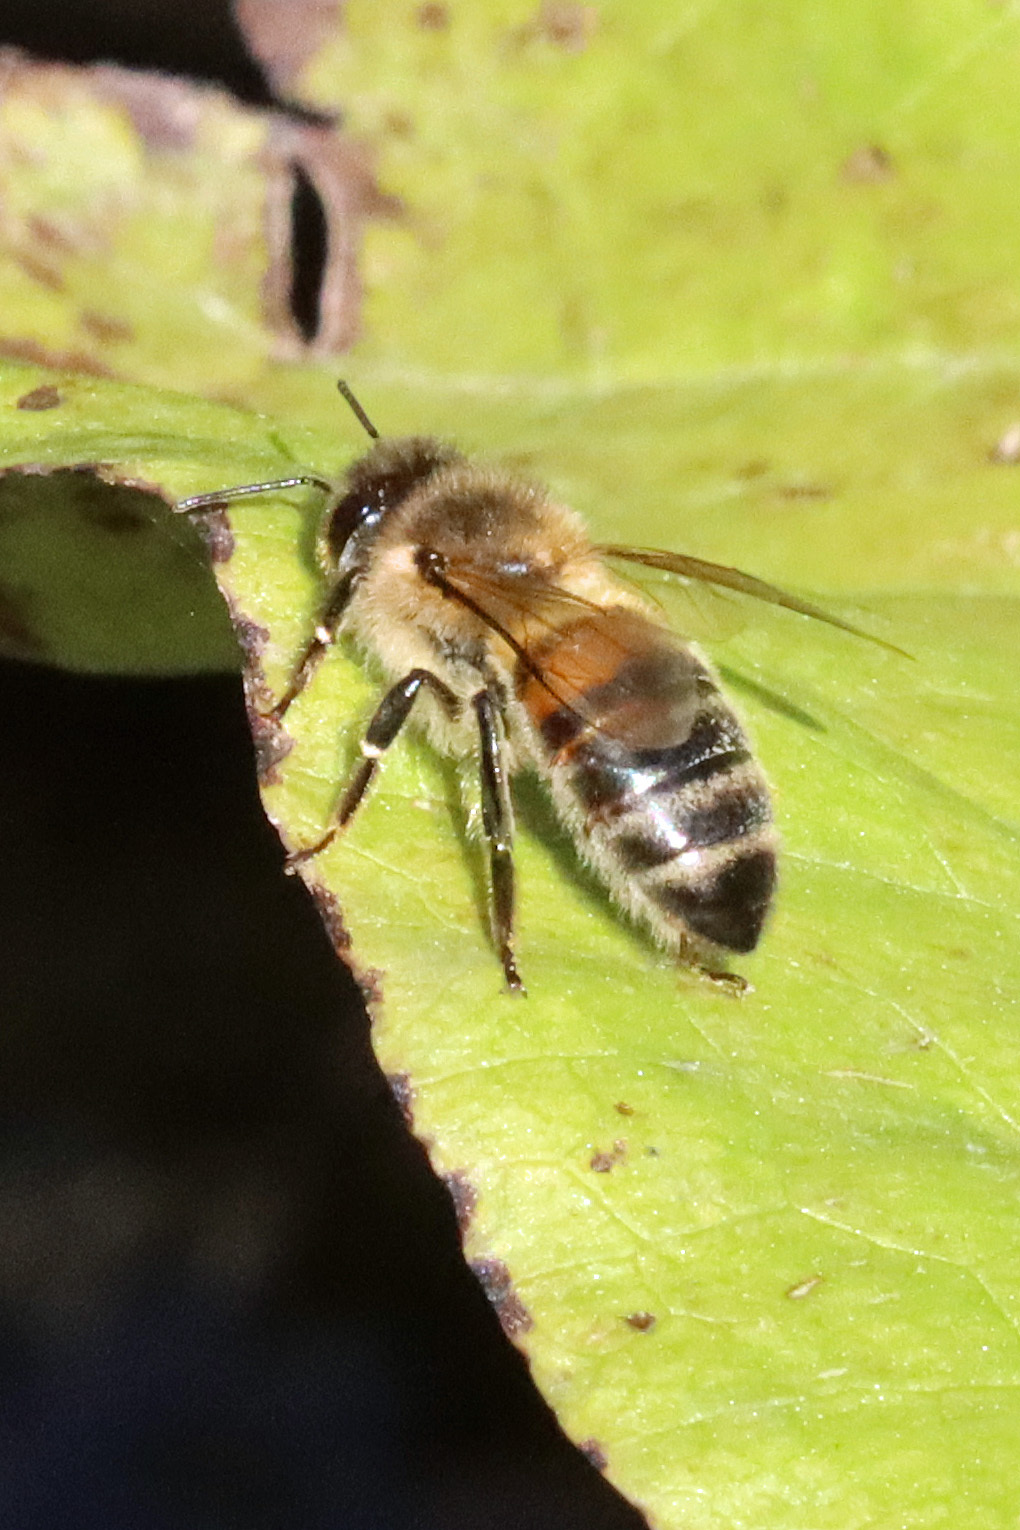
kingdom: Animalia
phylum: Arthropoda
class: Insecta
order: Hymenoptera
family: Apidae
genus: Apis
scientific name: Apis mellifera
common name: Honey bee
